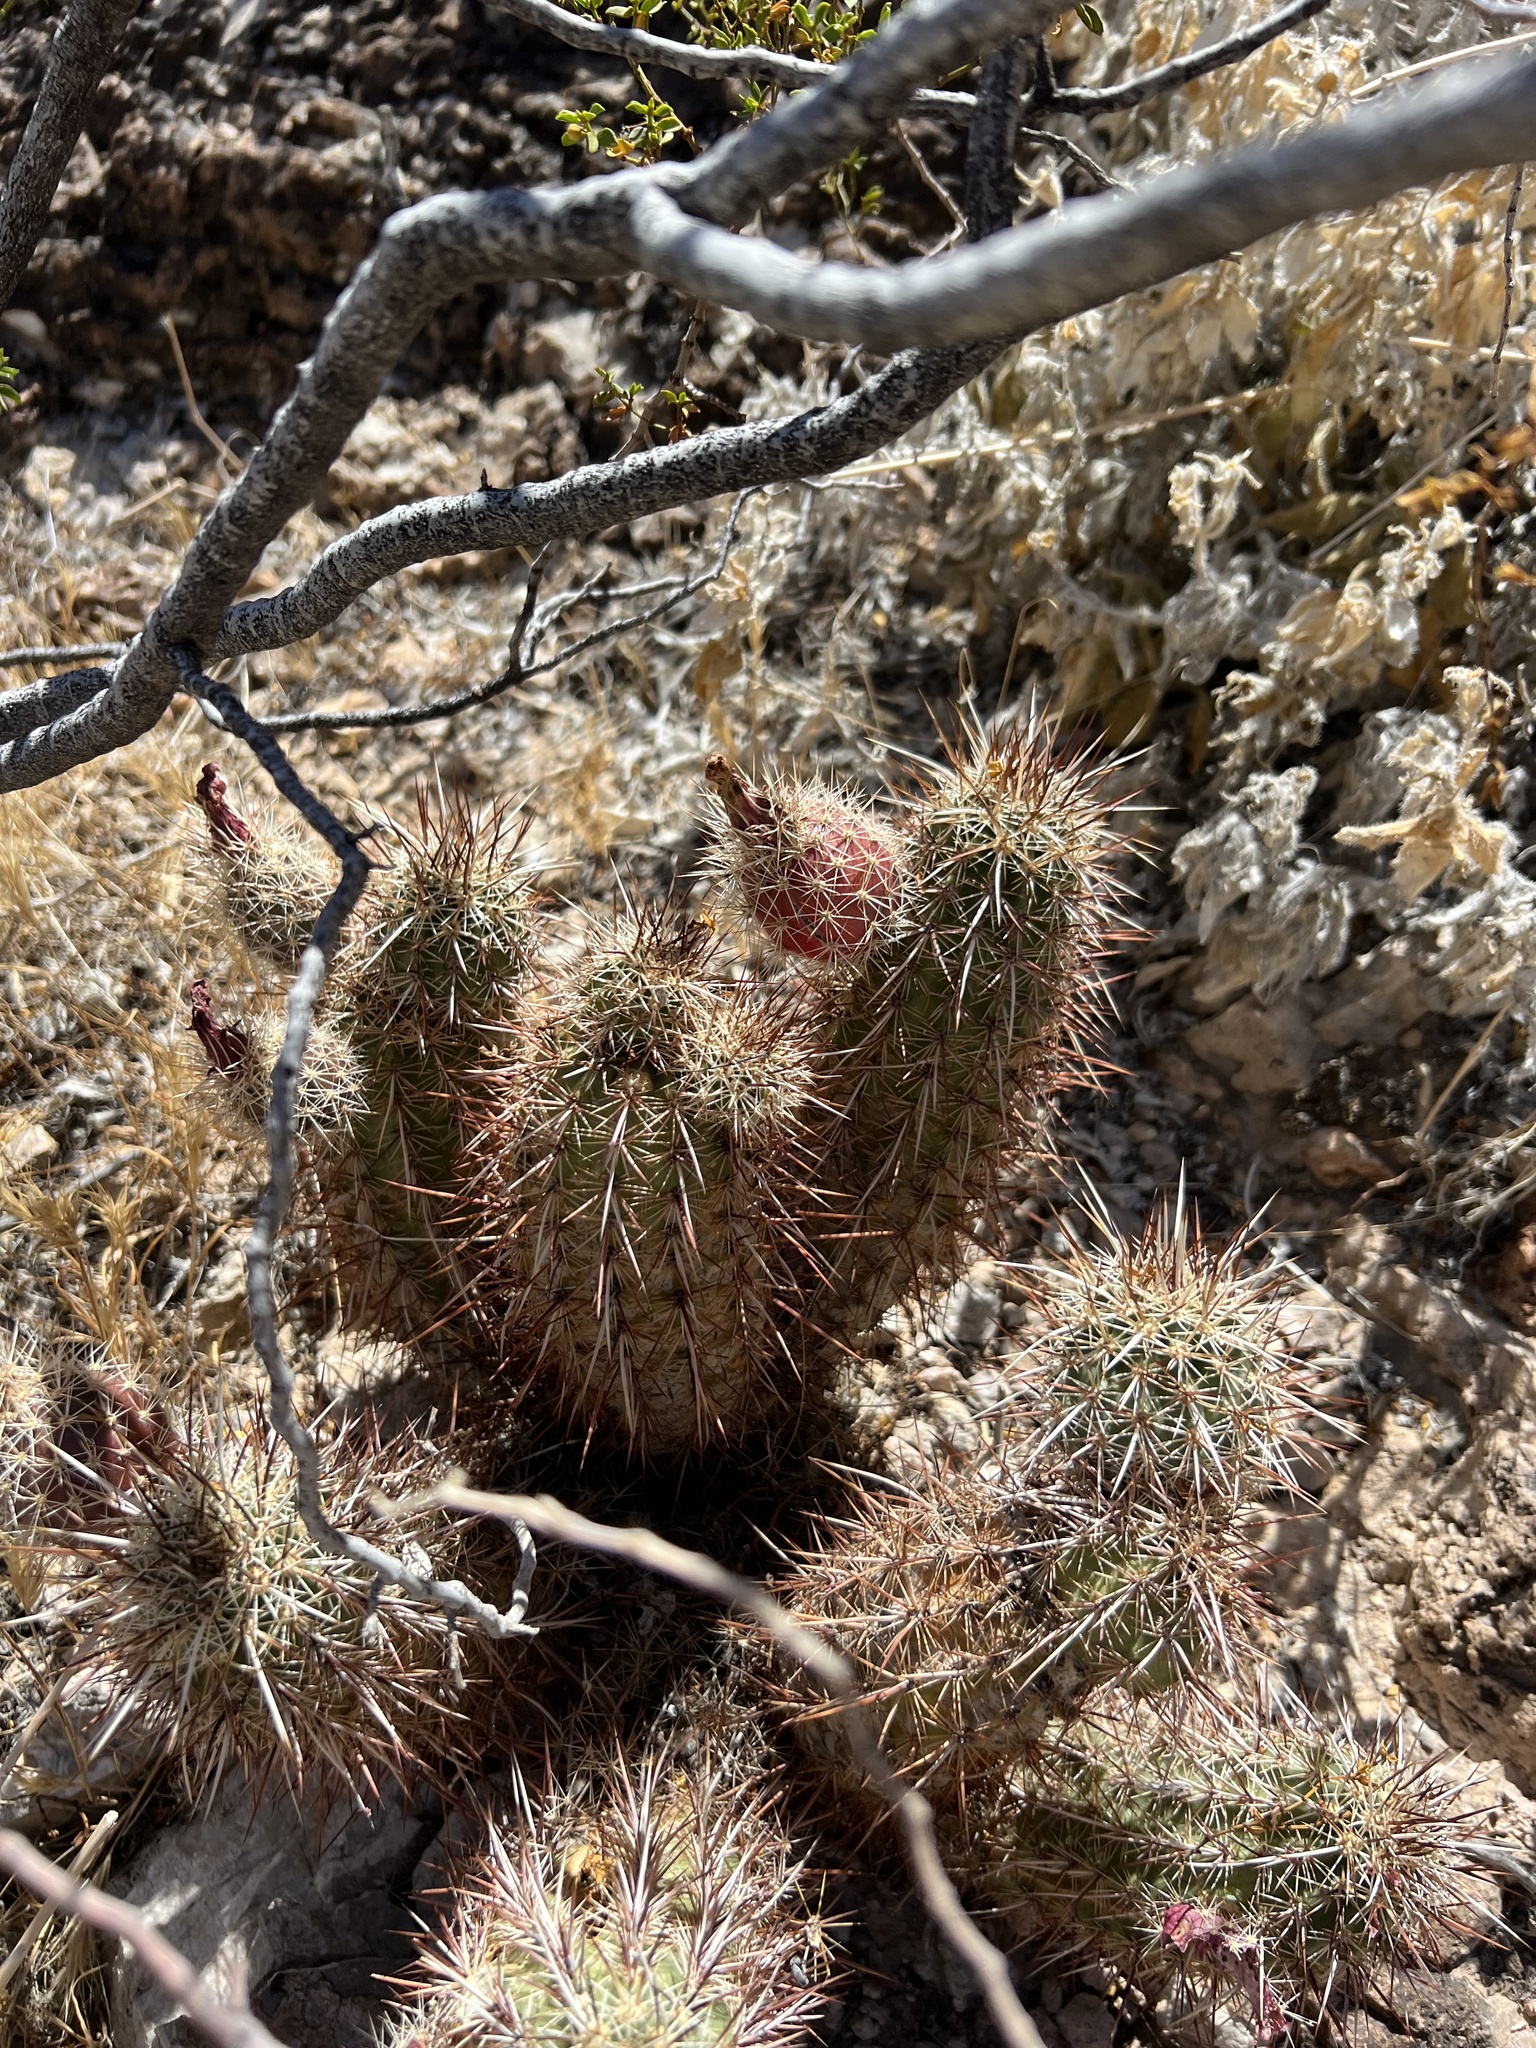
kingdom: Plantae
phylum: Tracheophyta
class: Magnoliopsida
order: Caryophyllales
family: Cactaceae
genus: Echinocereus
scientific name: Echinocereus engelmannii
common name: Engelmann's hedgehog cactus
